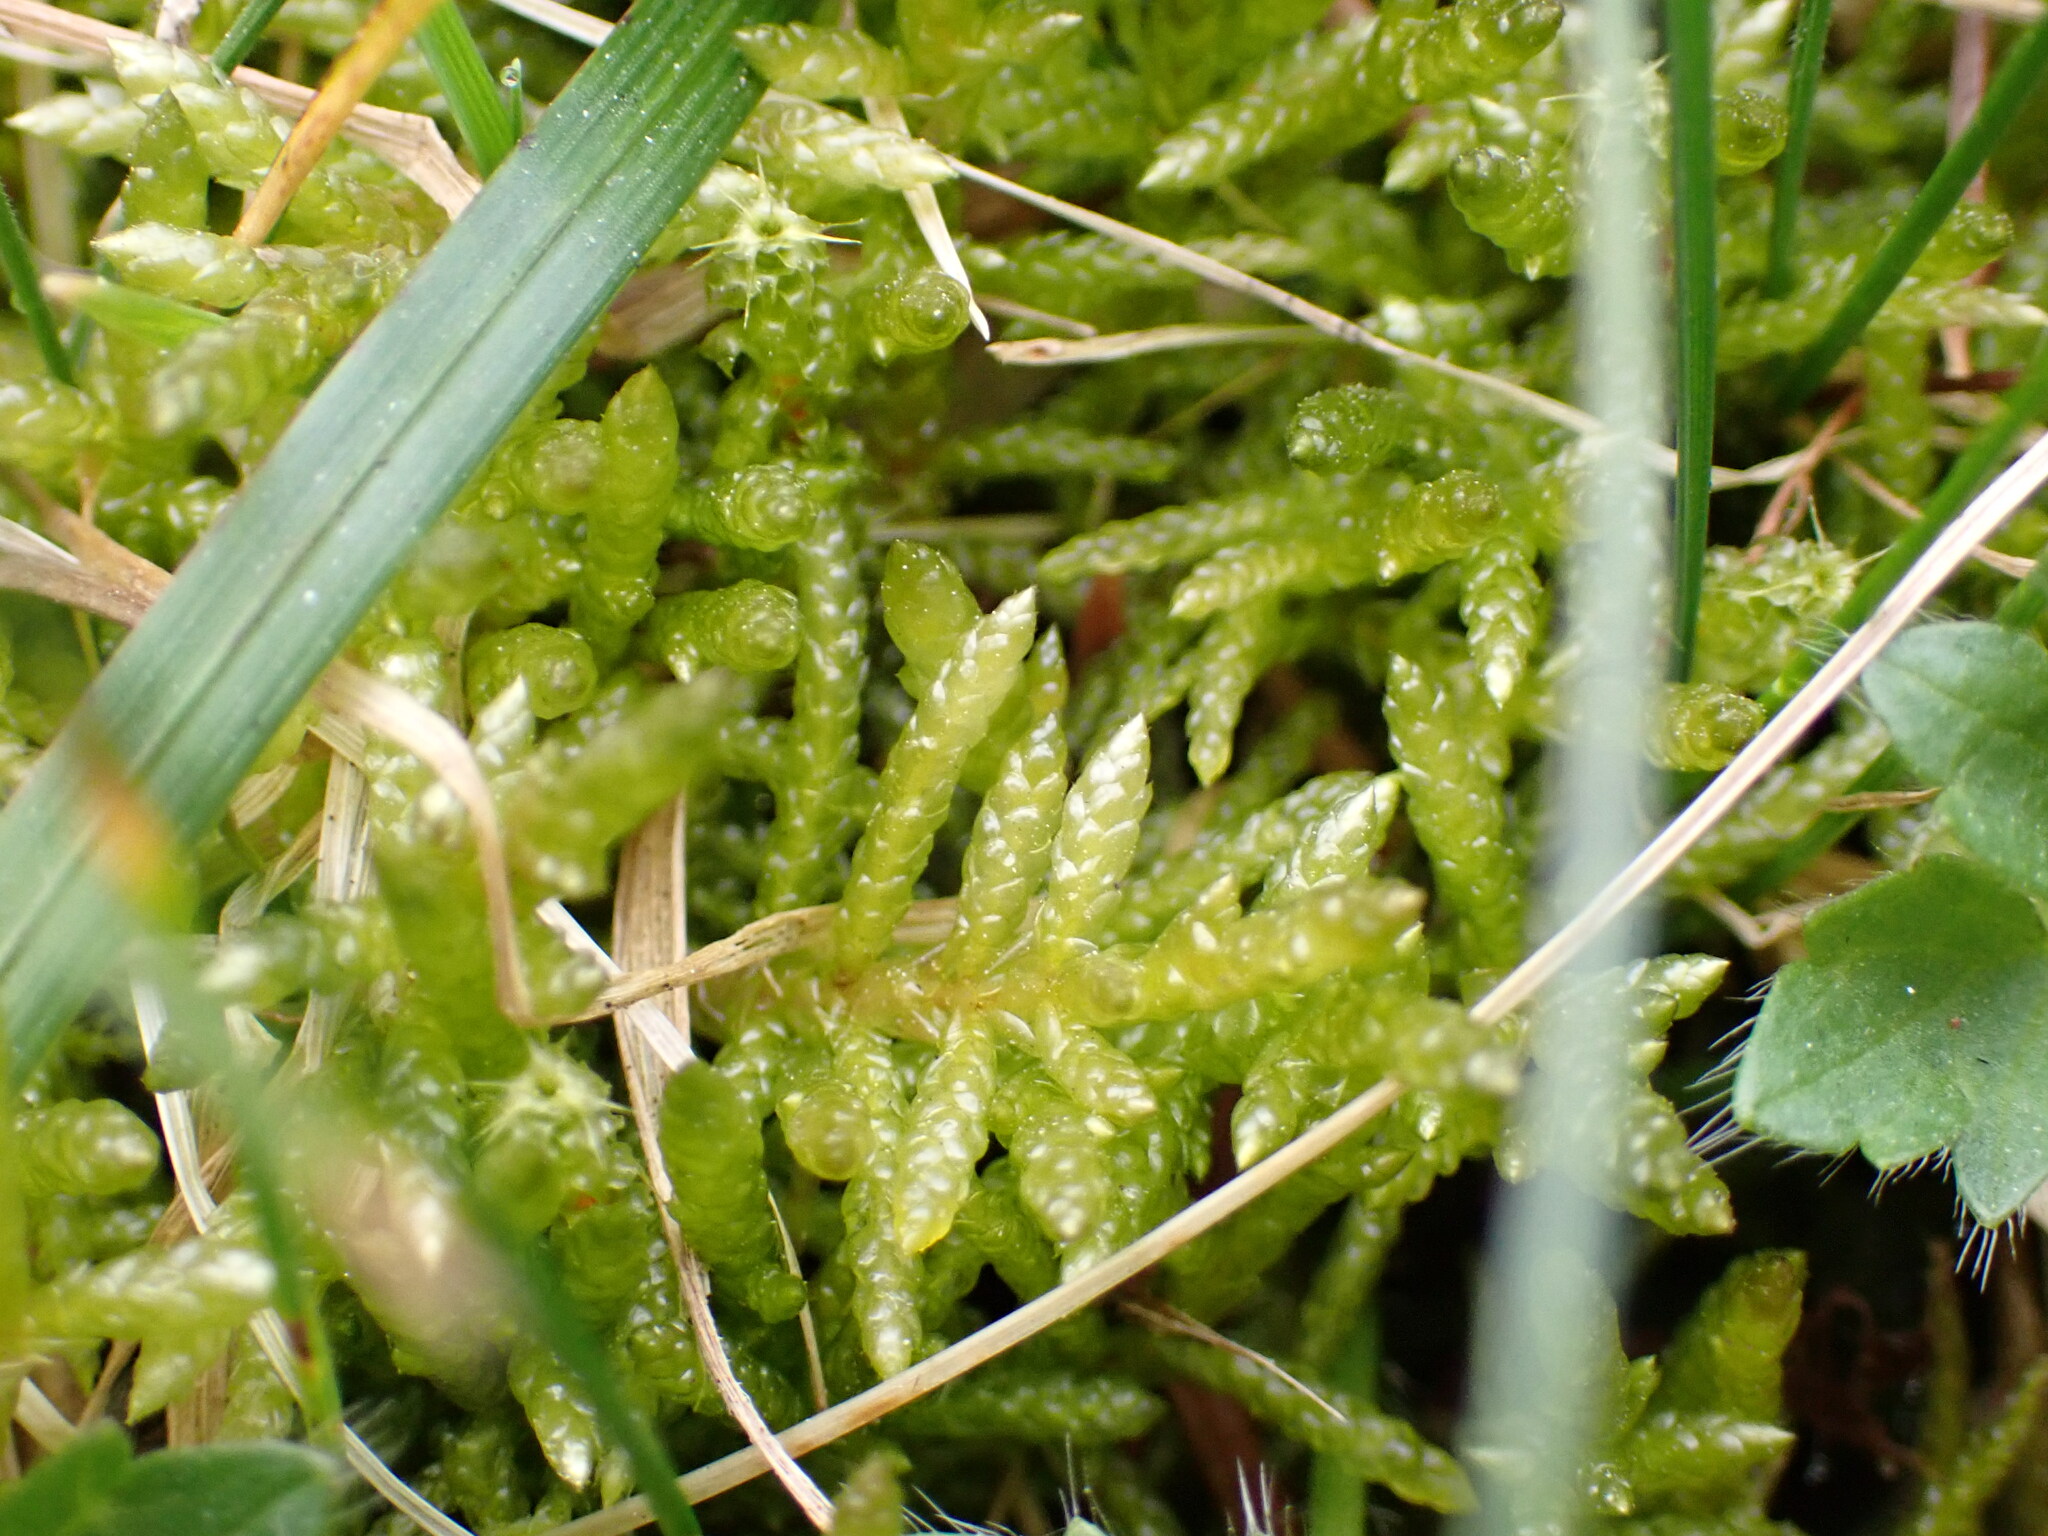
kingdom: Plantae
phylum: Bryophyta
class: Bryopsida
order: Hypnales
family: Brachytheciaceae
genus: Pseudoscleropodium
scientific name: Pseudoscleropodium purum
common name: Neat feather-moss
